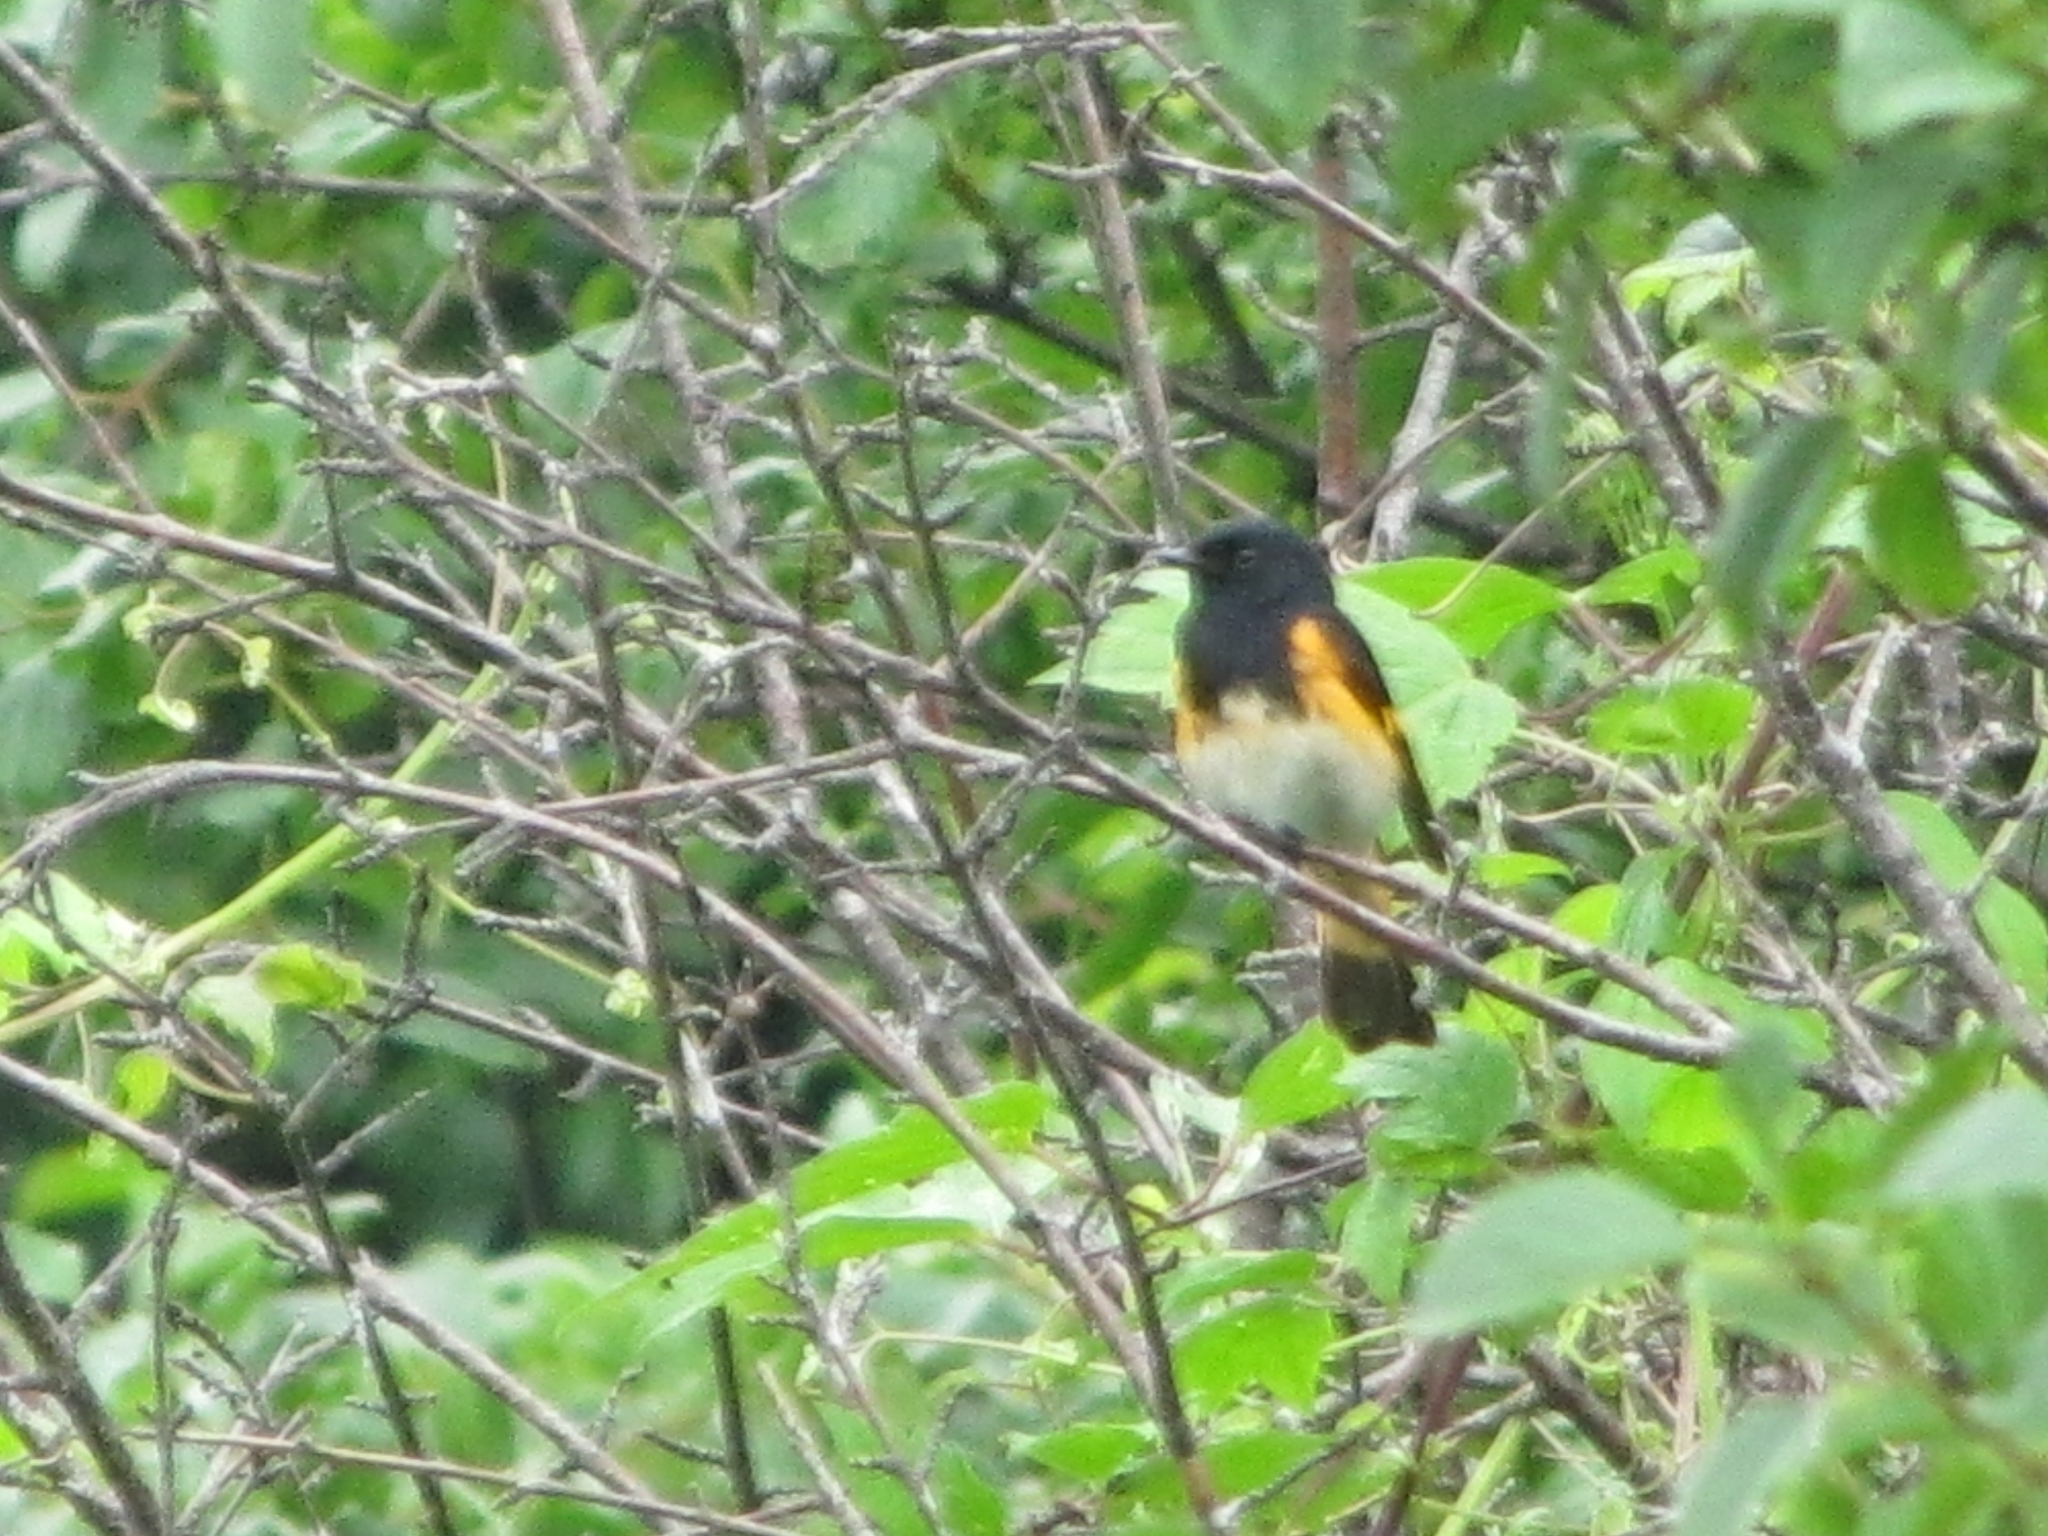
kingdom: Animalia
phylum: Chordata
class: Aves
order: Passeriformes
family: Parulidae
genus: Setophaga
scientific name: Setophaga ruticilla
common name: American redstart
